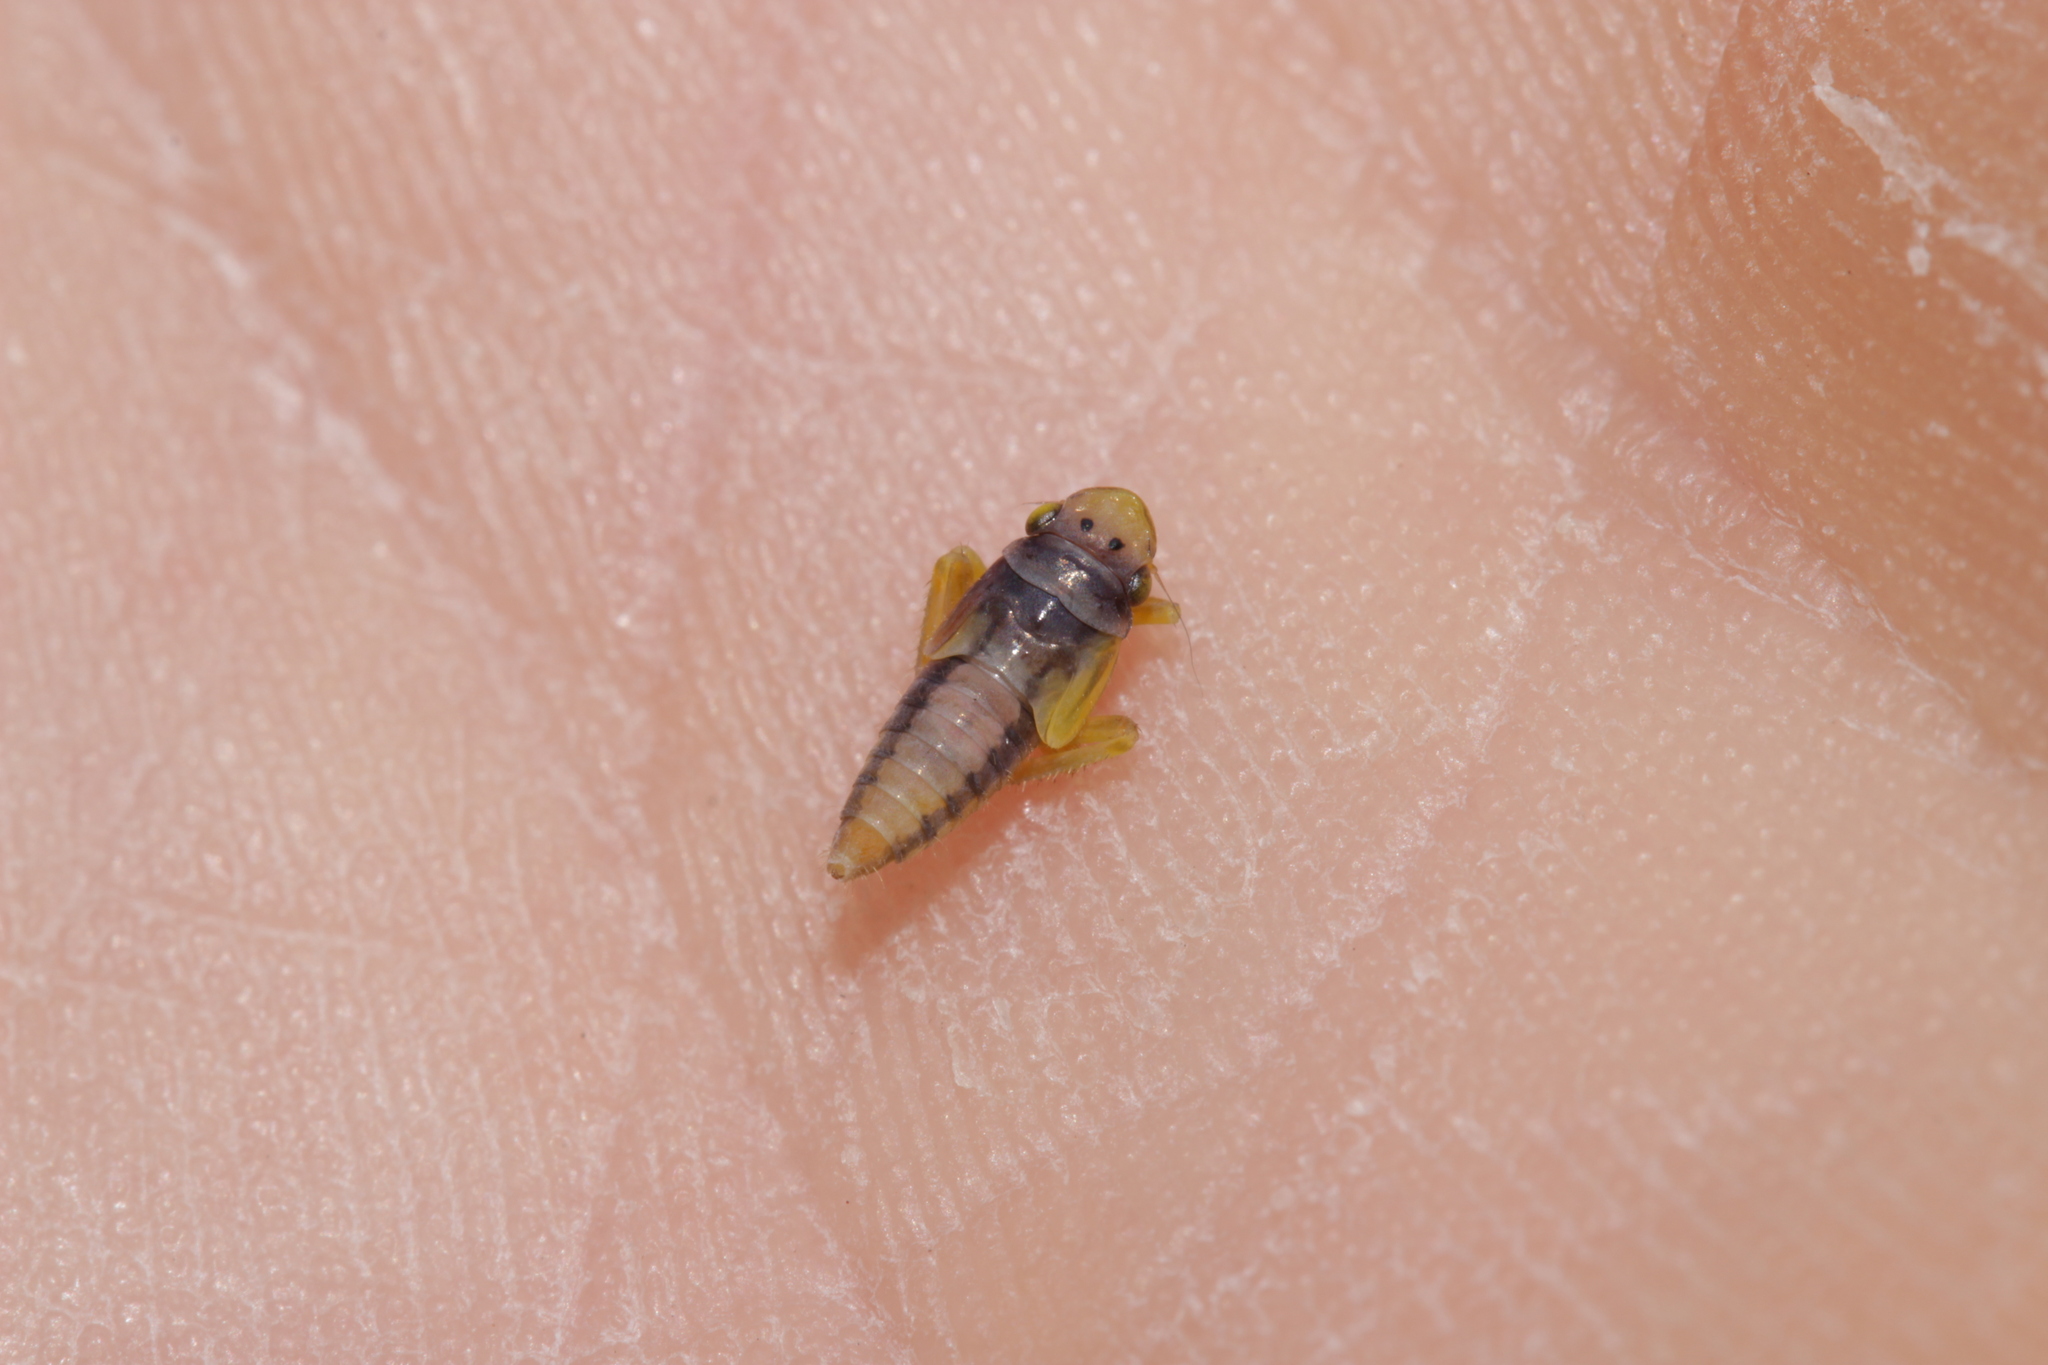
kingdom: Animalia
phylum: Arthropoda
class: Insecta
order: Hemiptera
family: Cicadellidae
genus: Evacanthus
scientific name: Evacanthus interruptus
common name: Leafhopper
